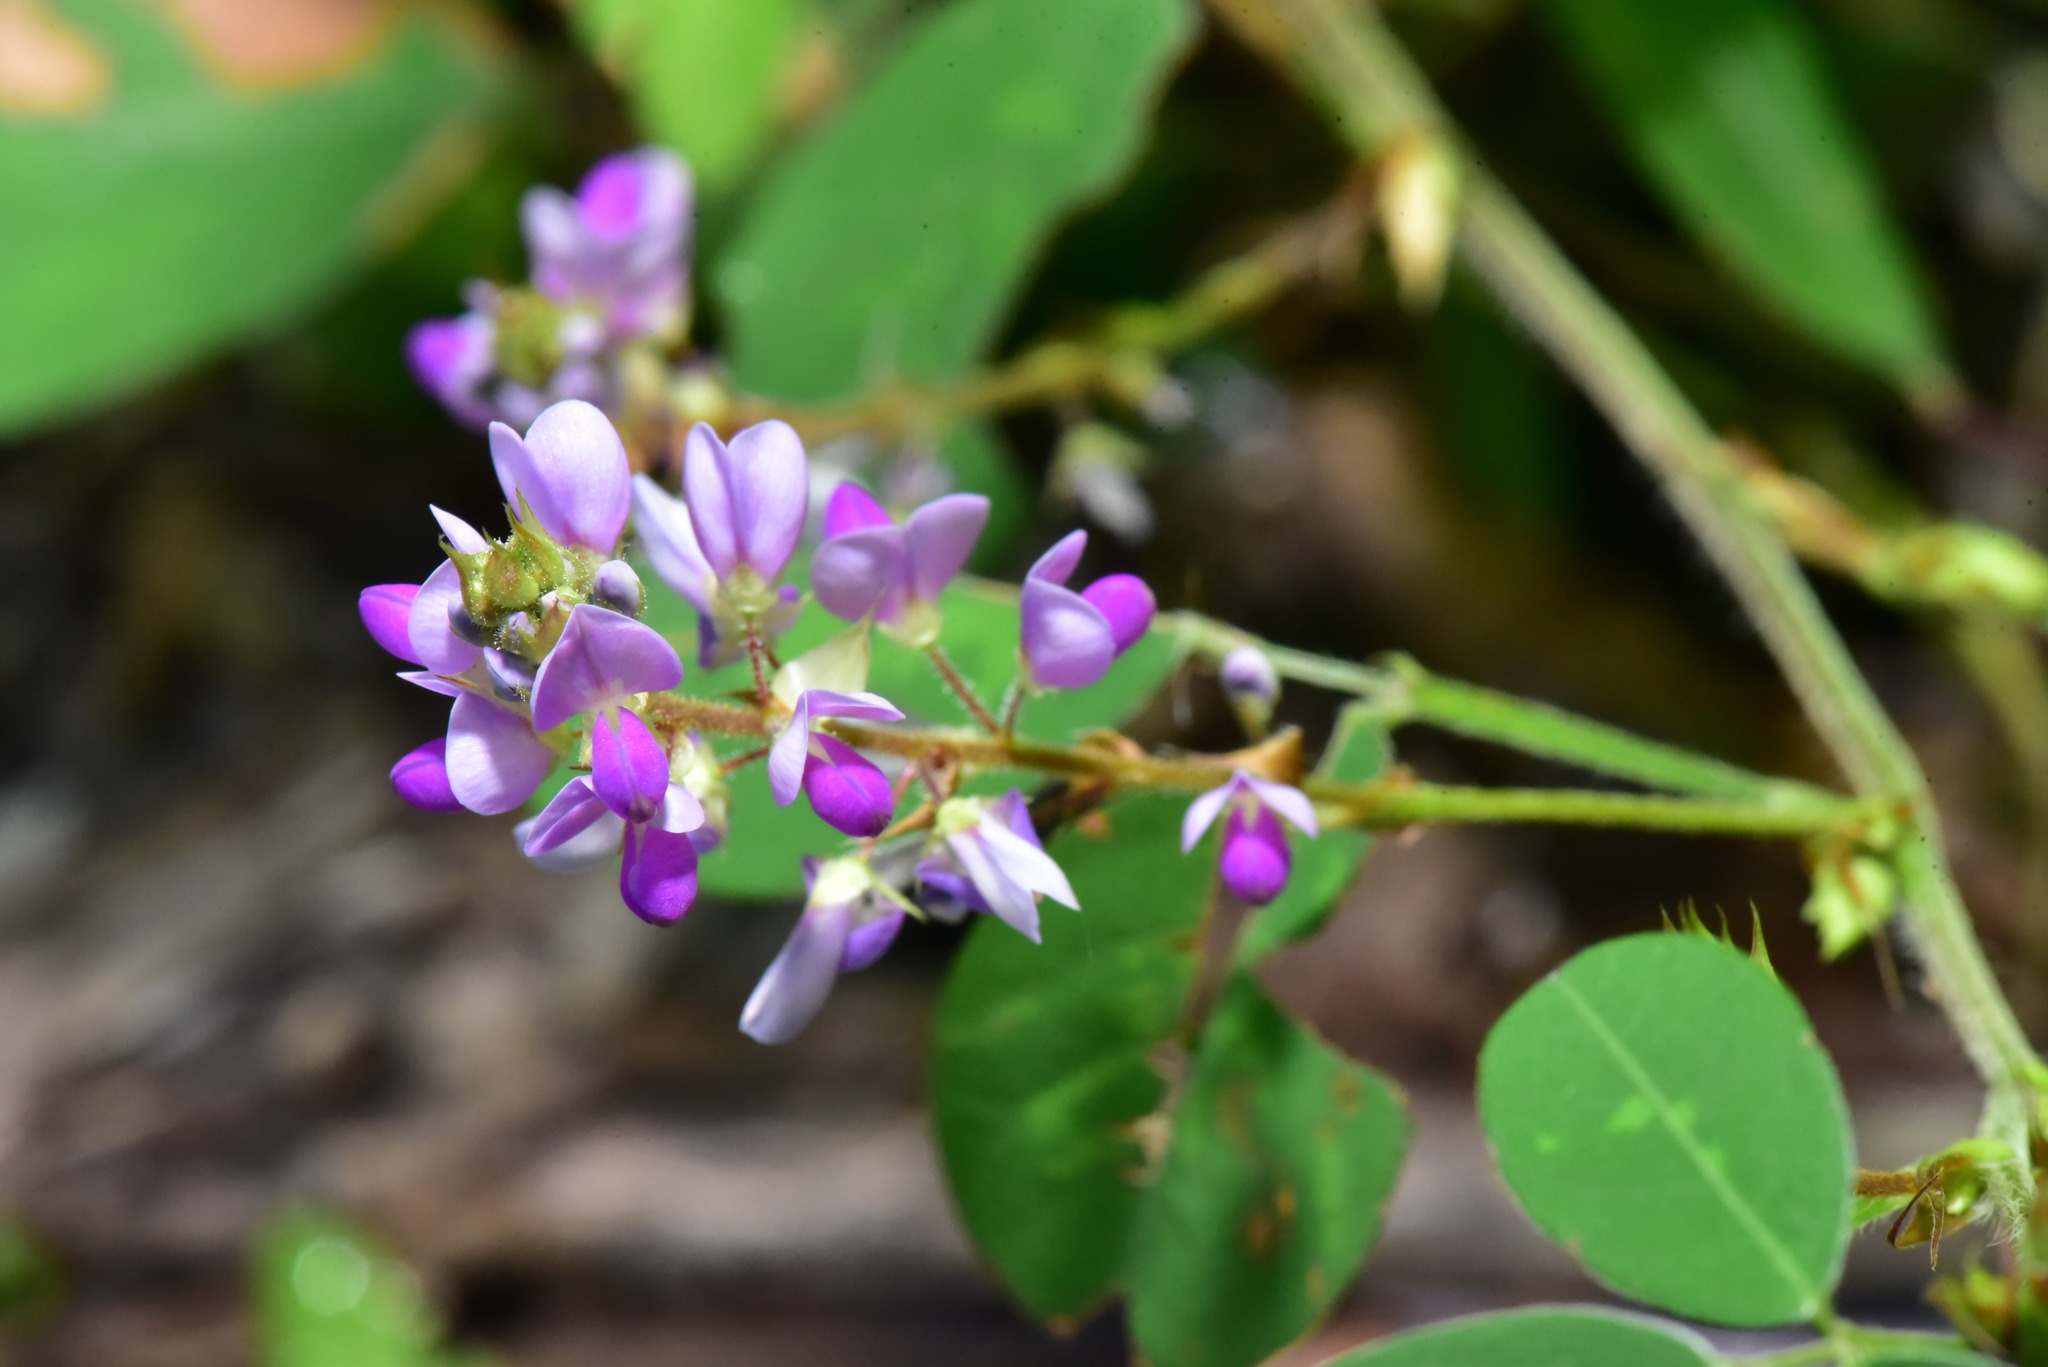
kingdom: Plantae
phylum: Tracheophyta
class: Magnoliopsida
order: Fabales
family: Fabaceae
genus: Grona
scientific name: Grona heterocarpos
